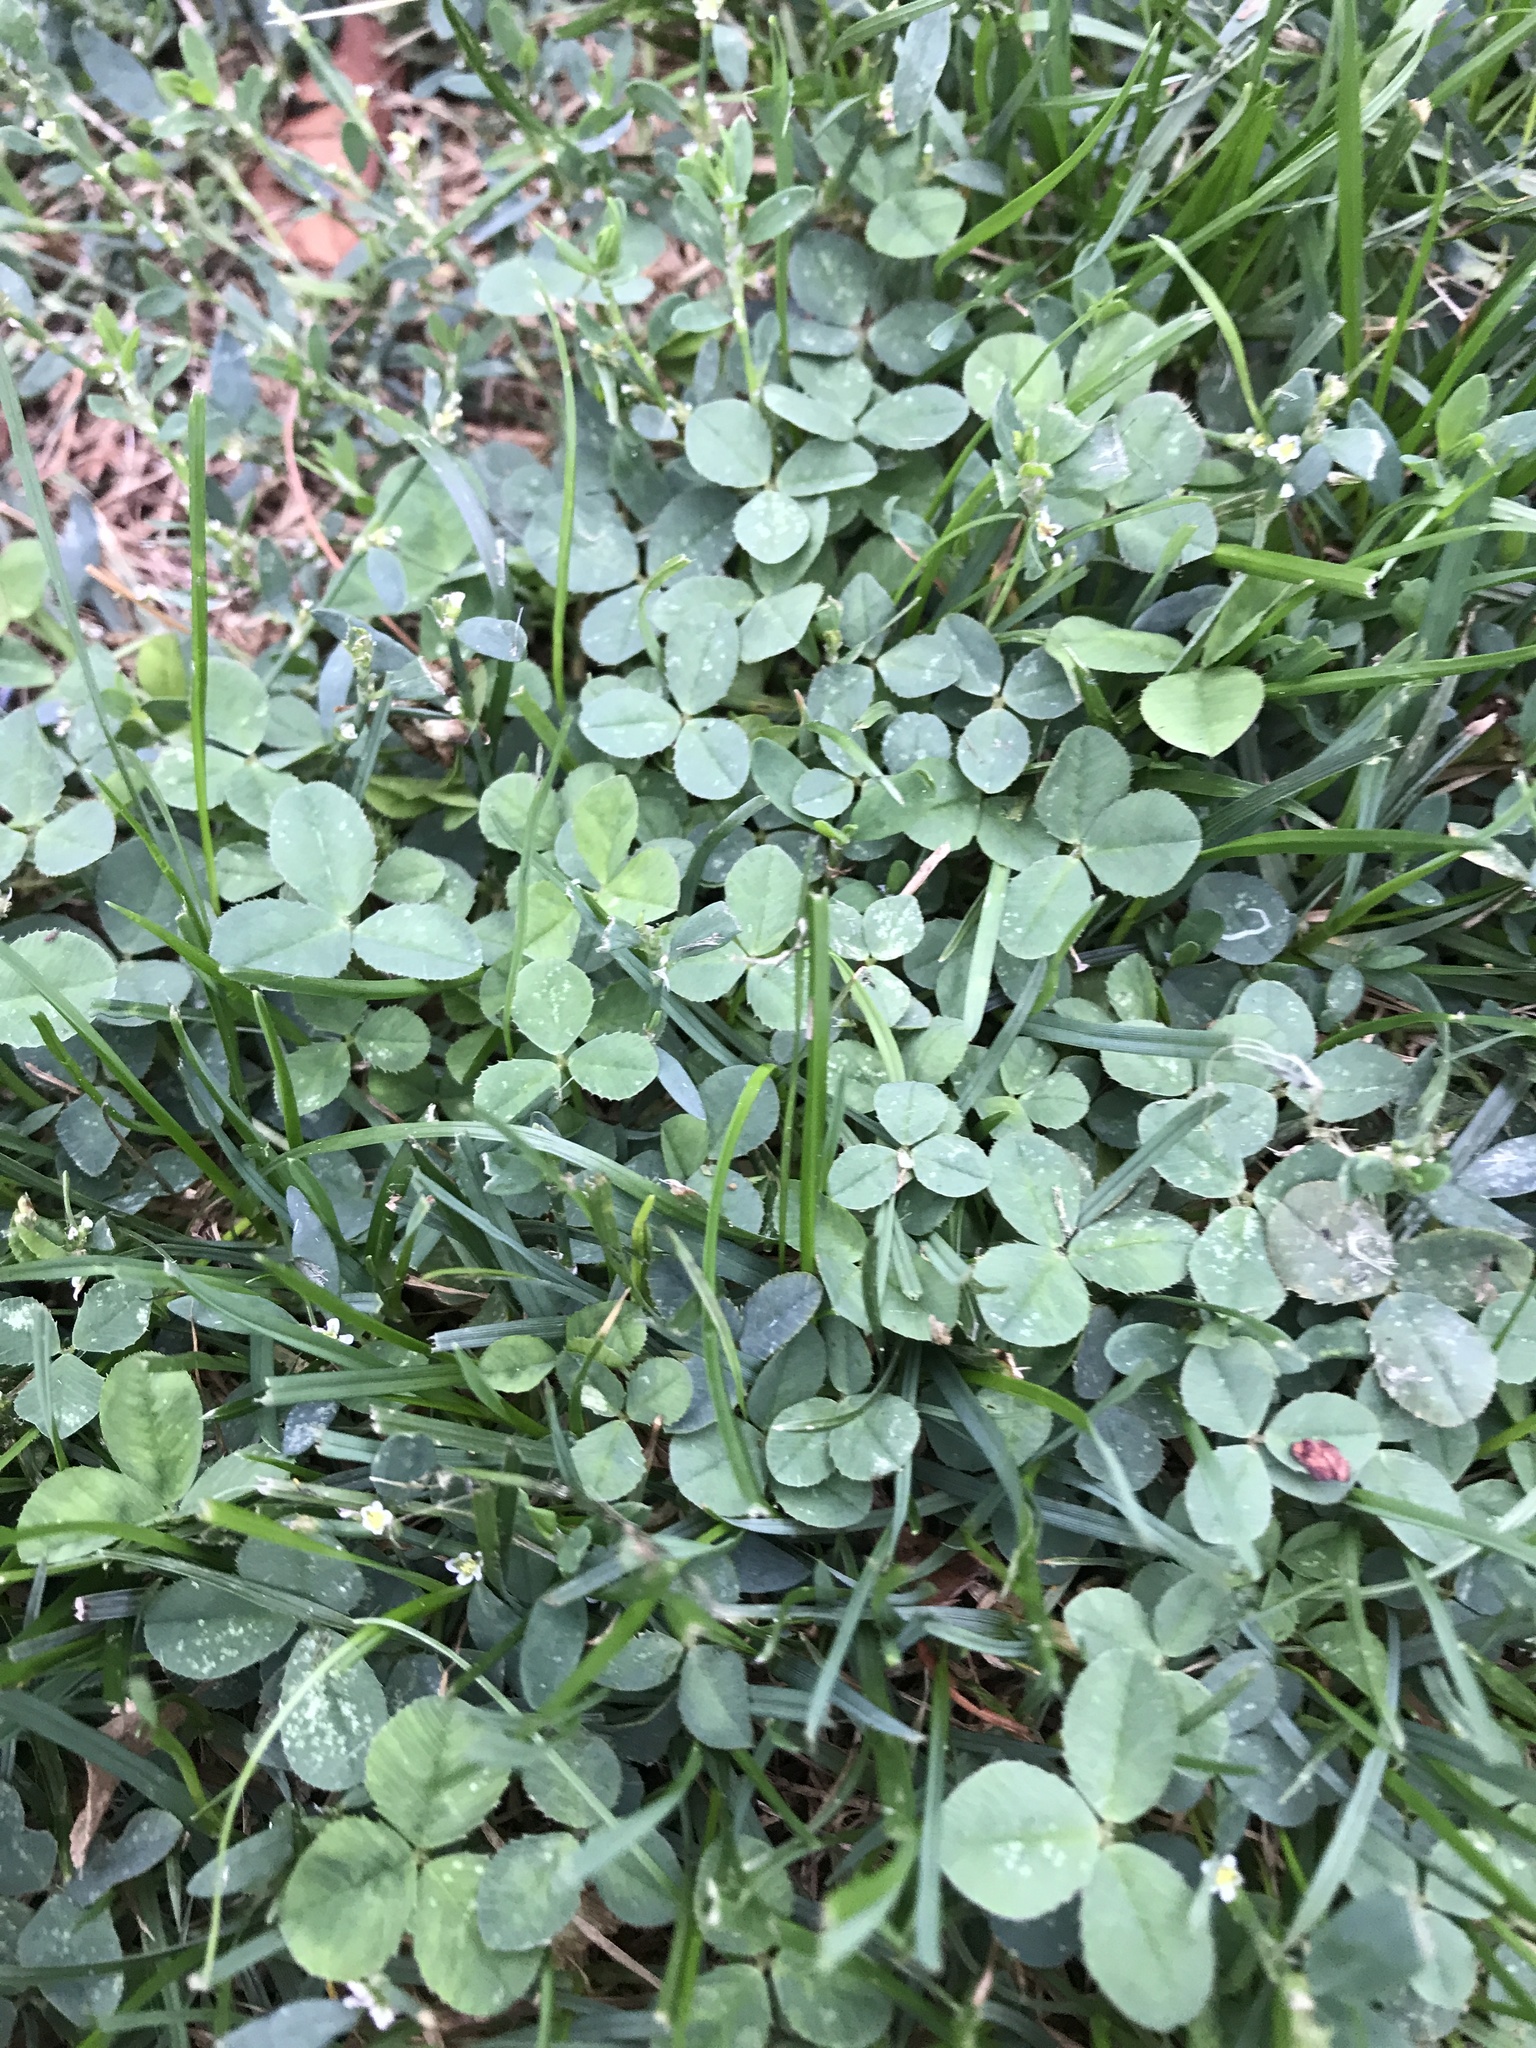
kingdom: Plantae
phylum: Tracheophyta
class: Magnoliopsida
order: Fabales
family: Fabaceae
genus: Trifolium
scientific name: Trifolium repens
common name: White clover
